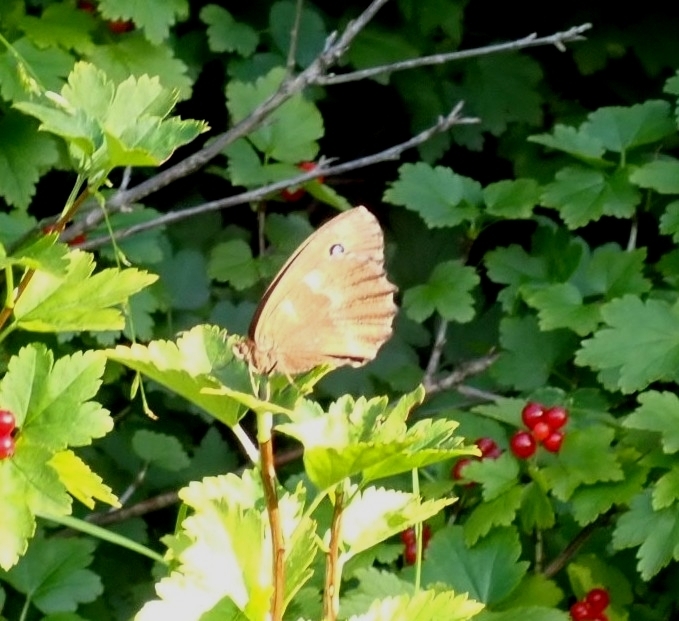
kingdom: Animalia
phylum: Arthropoda
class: Insecta
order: Lepidoptera
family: Nymphalidae
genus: Minois
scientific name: Minois dryas
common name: Dryad
